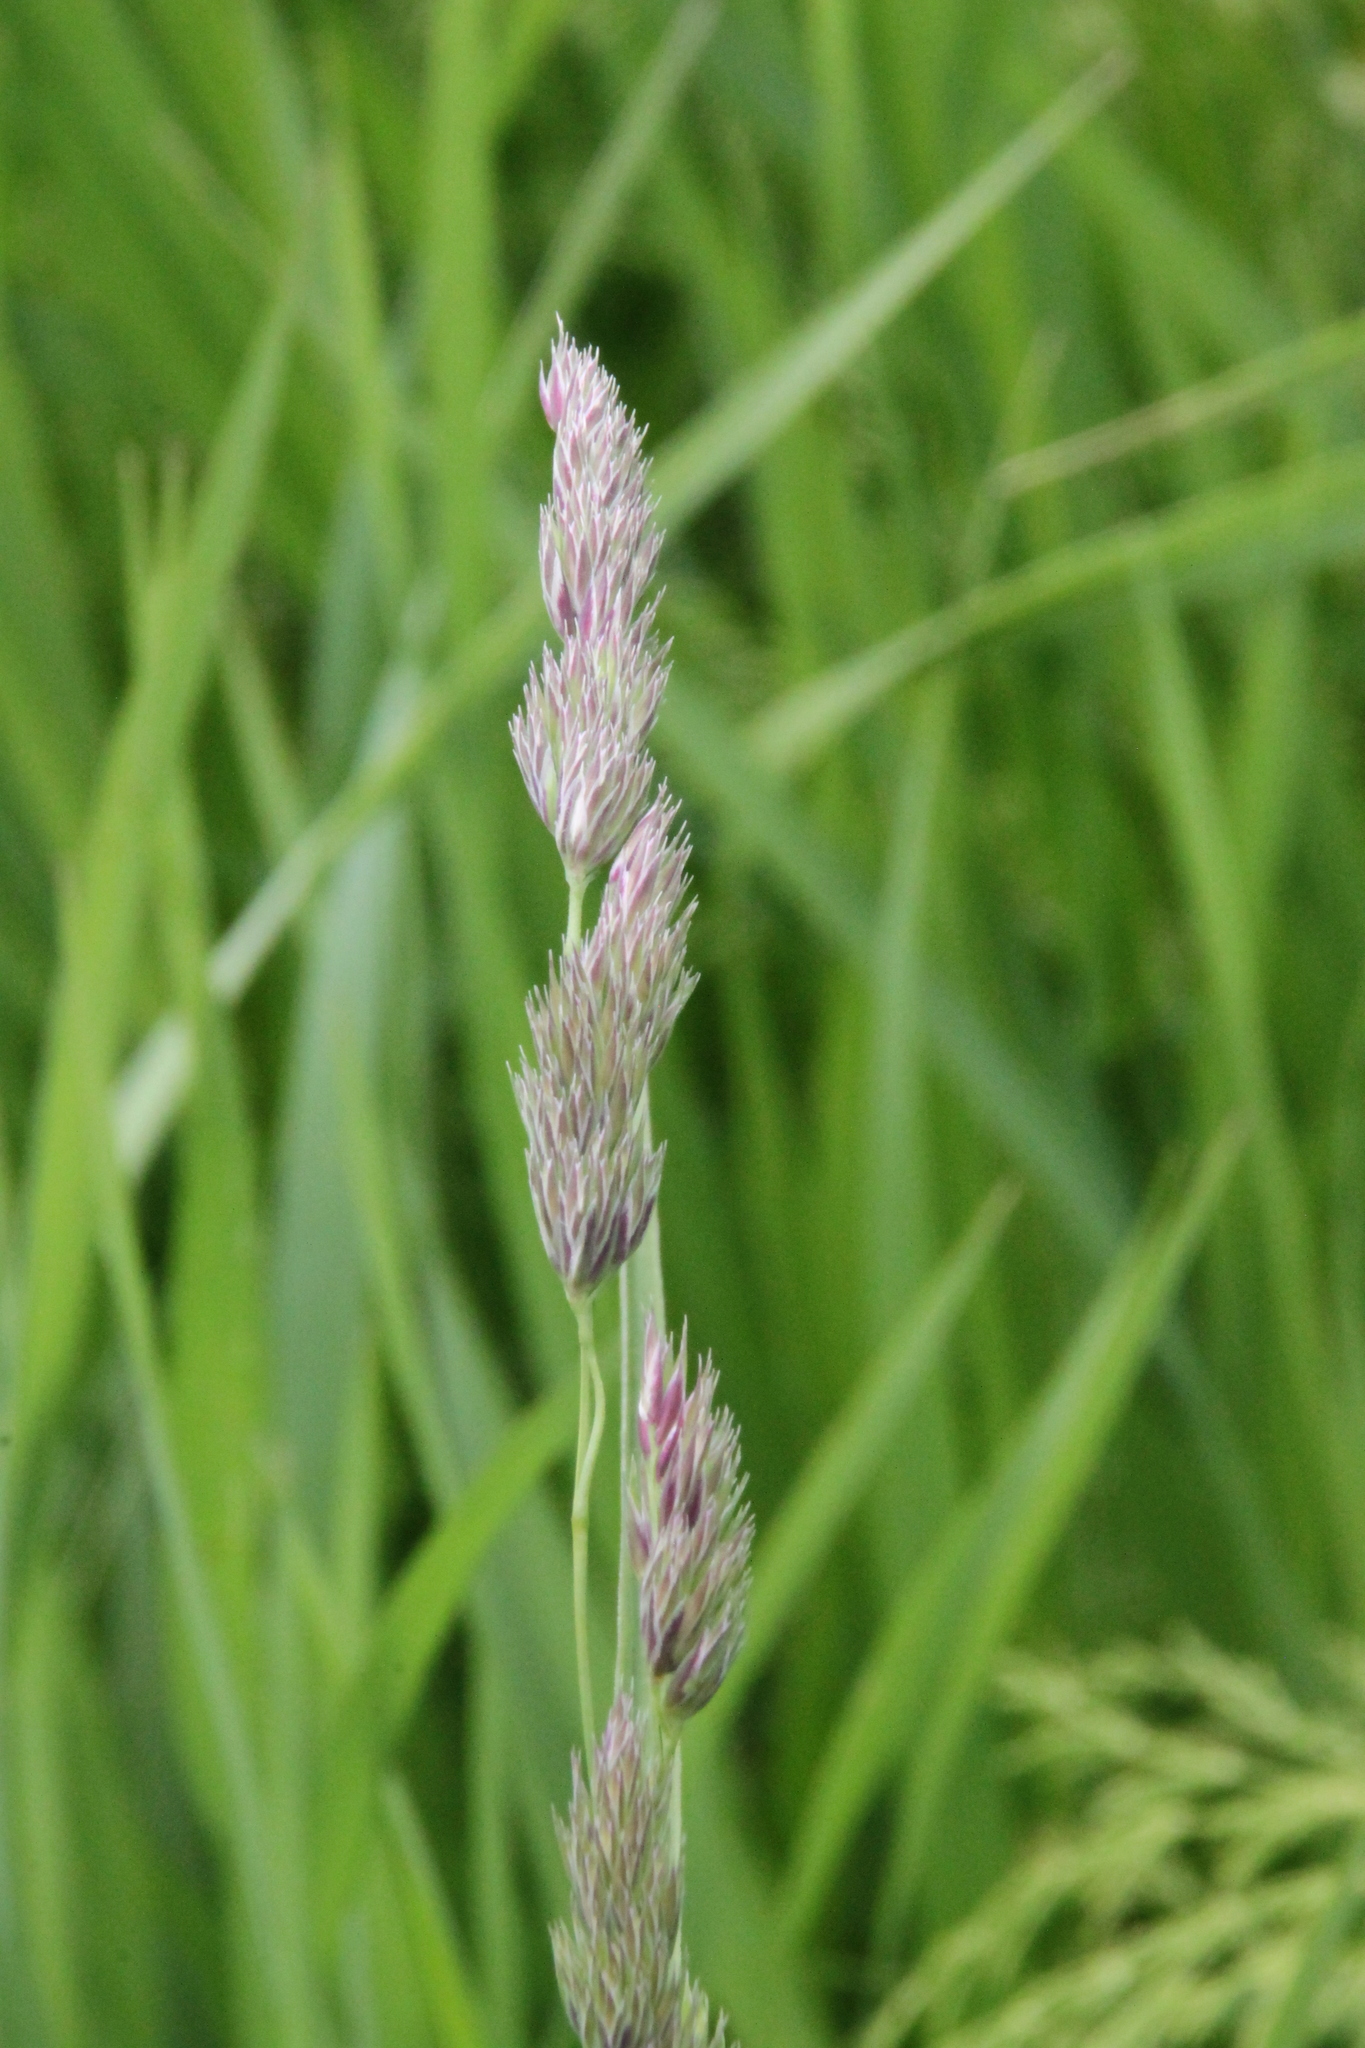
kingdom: Plantae
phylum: Tracheophyta
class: Liliopsida
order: Poales
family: Poaceae
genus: Dactylis
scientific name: Dactylis glomerata
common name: Orchardgrass
